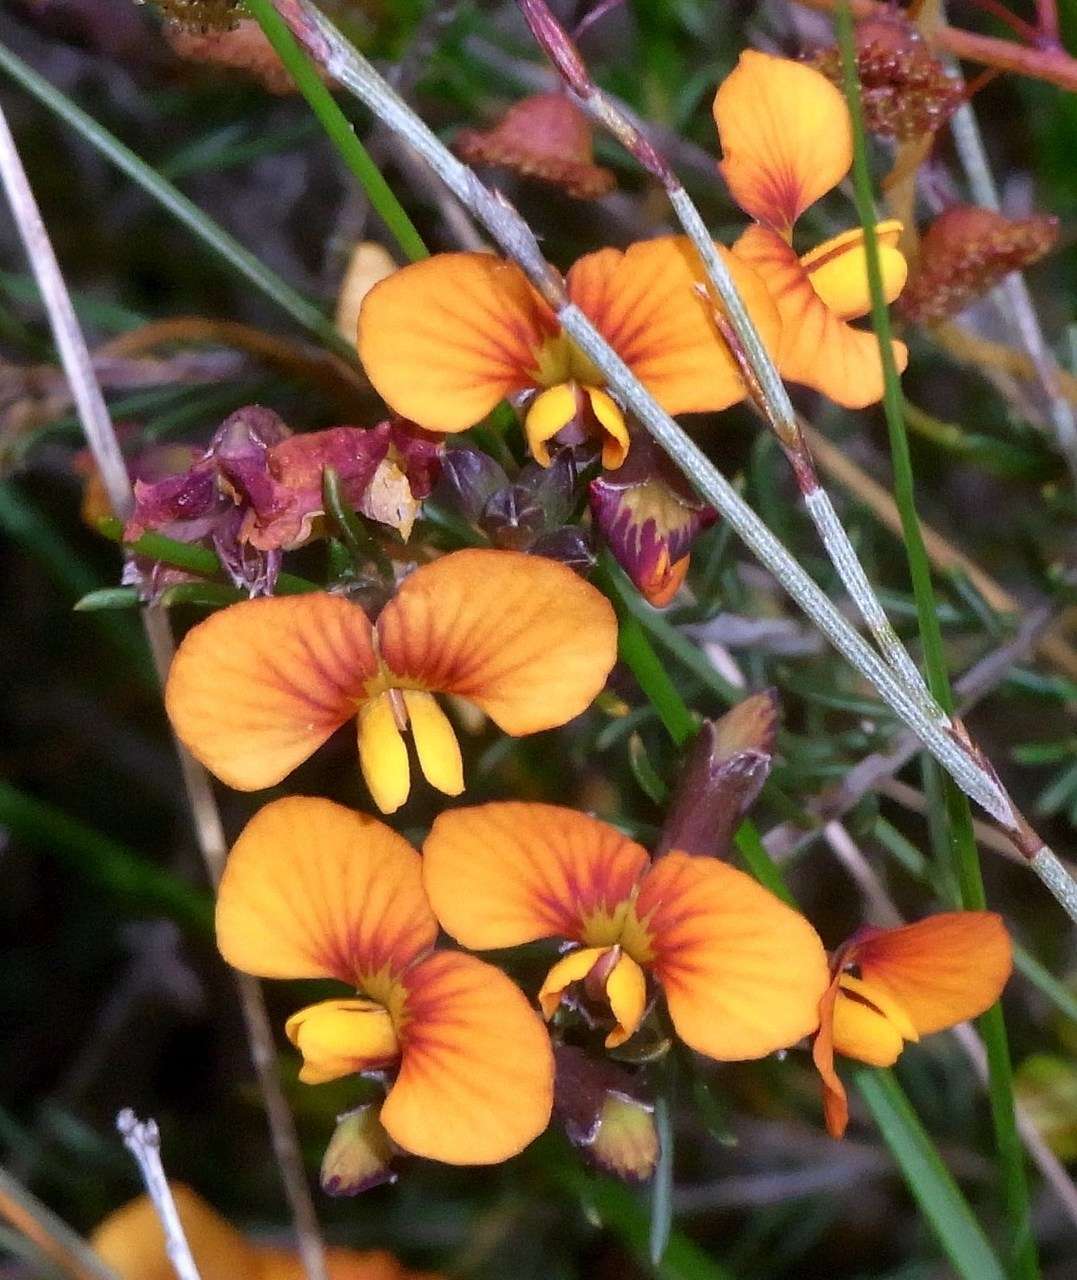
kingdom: Plantae
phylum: Tracheophyta
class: Magnoliopsida
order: Fabales
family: Fabaceae
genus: Dillwynia
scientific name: Dillwynia sericea
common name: Showy parrot-pea
